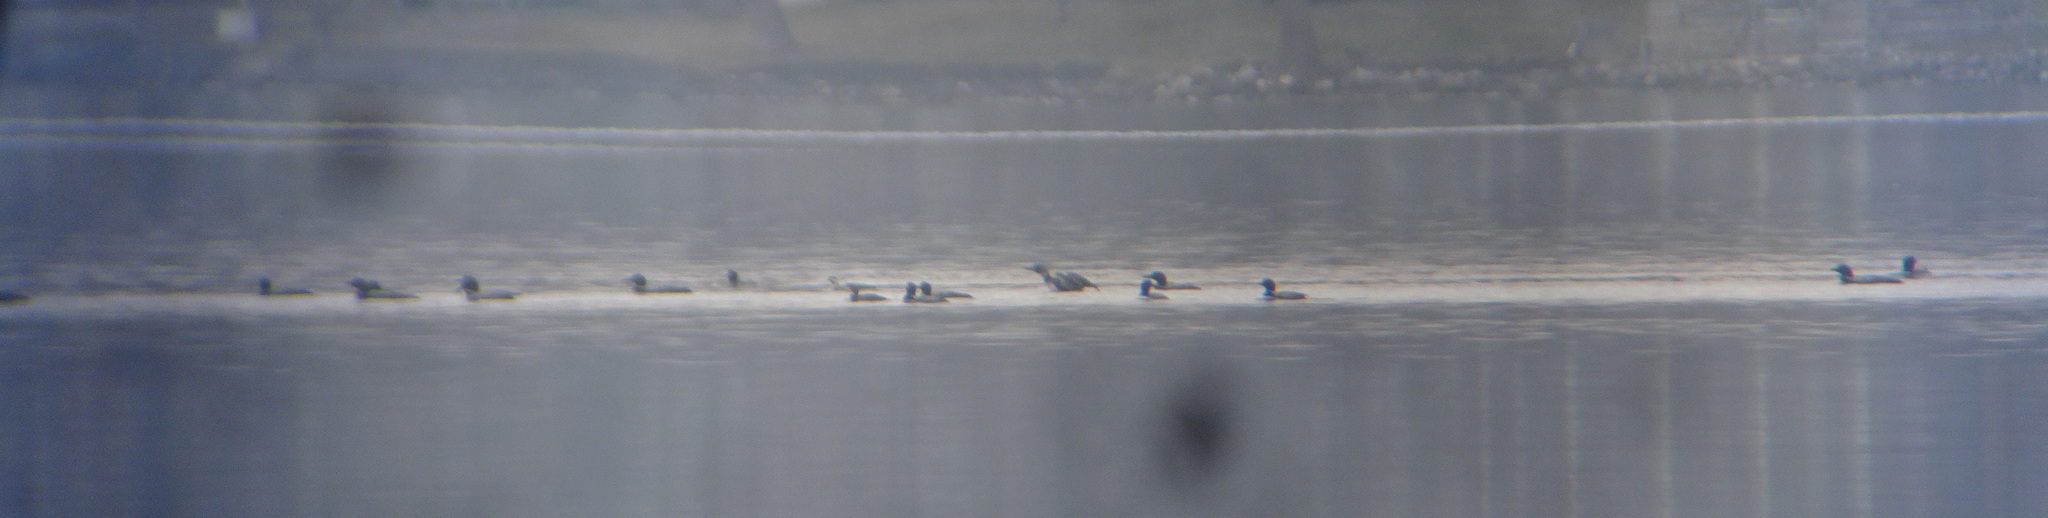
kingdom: Animalia
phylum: Chordata
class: Aves
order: Gaviiformes
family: Gaviidae
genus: Gavia
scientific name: Gavia immer
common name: Common loon
